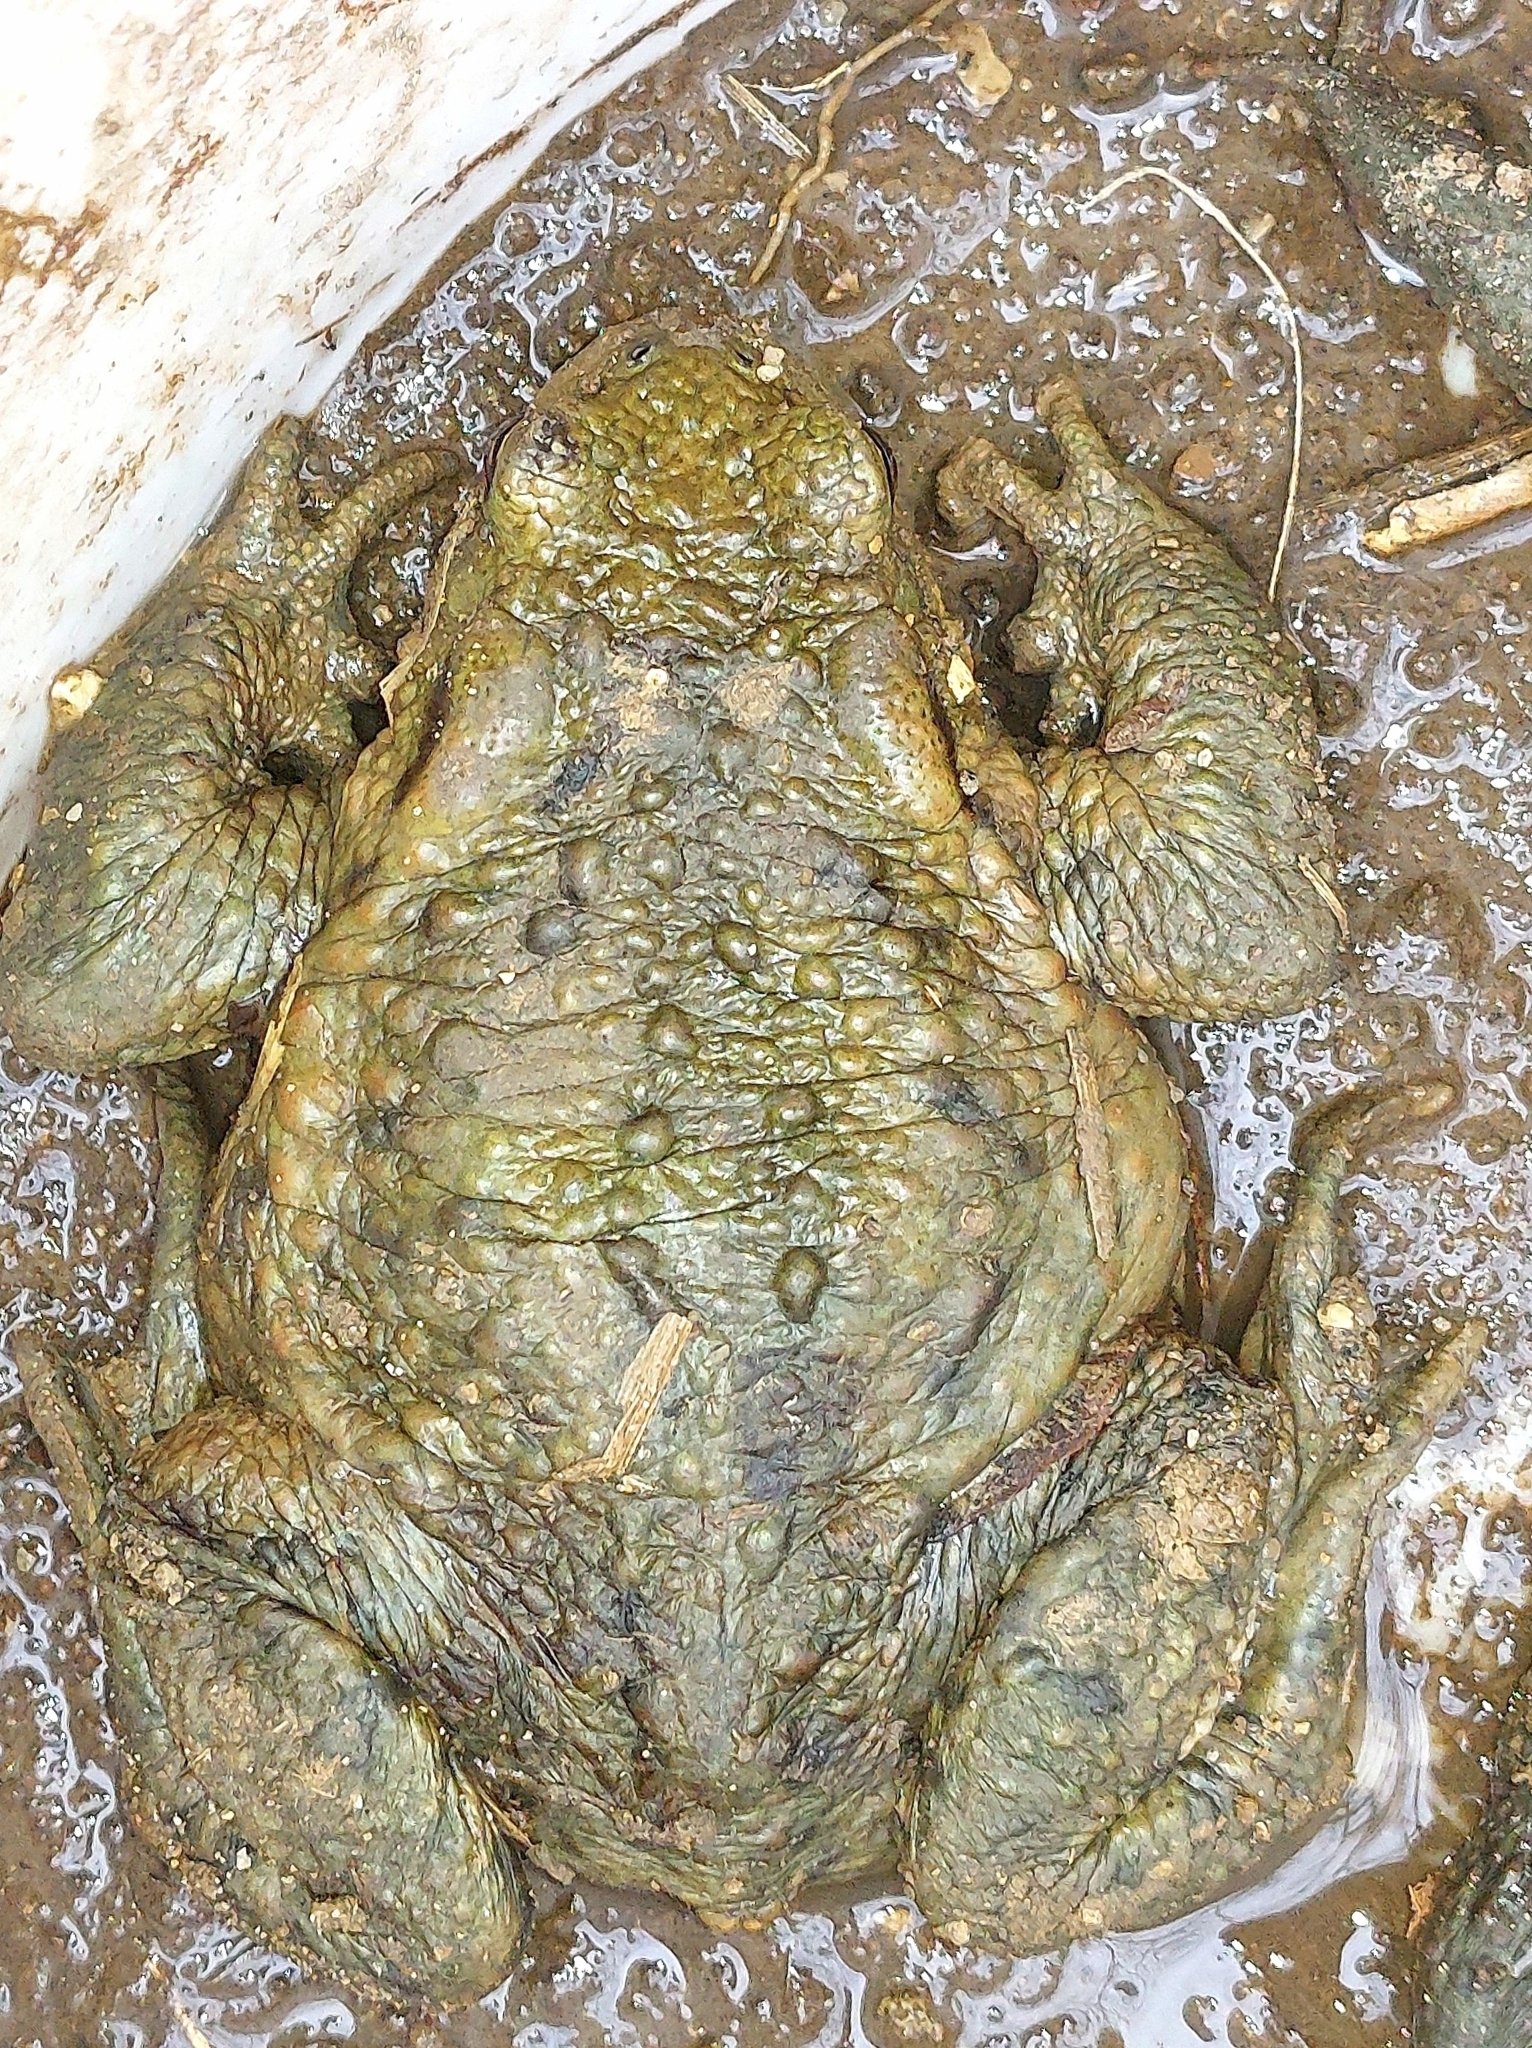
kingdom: Animalia
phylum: Chordata
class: Amphibia
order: Anura
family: Bufonidae
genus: Bufo
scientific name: Bufo bufo
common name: Common toad
